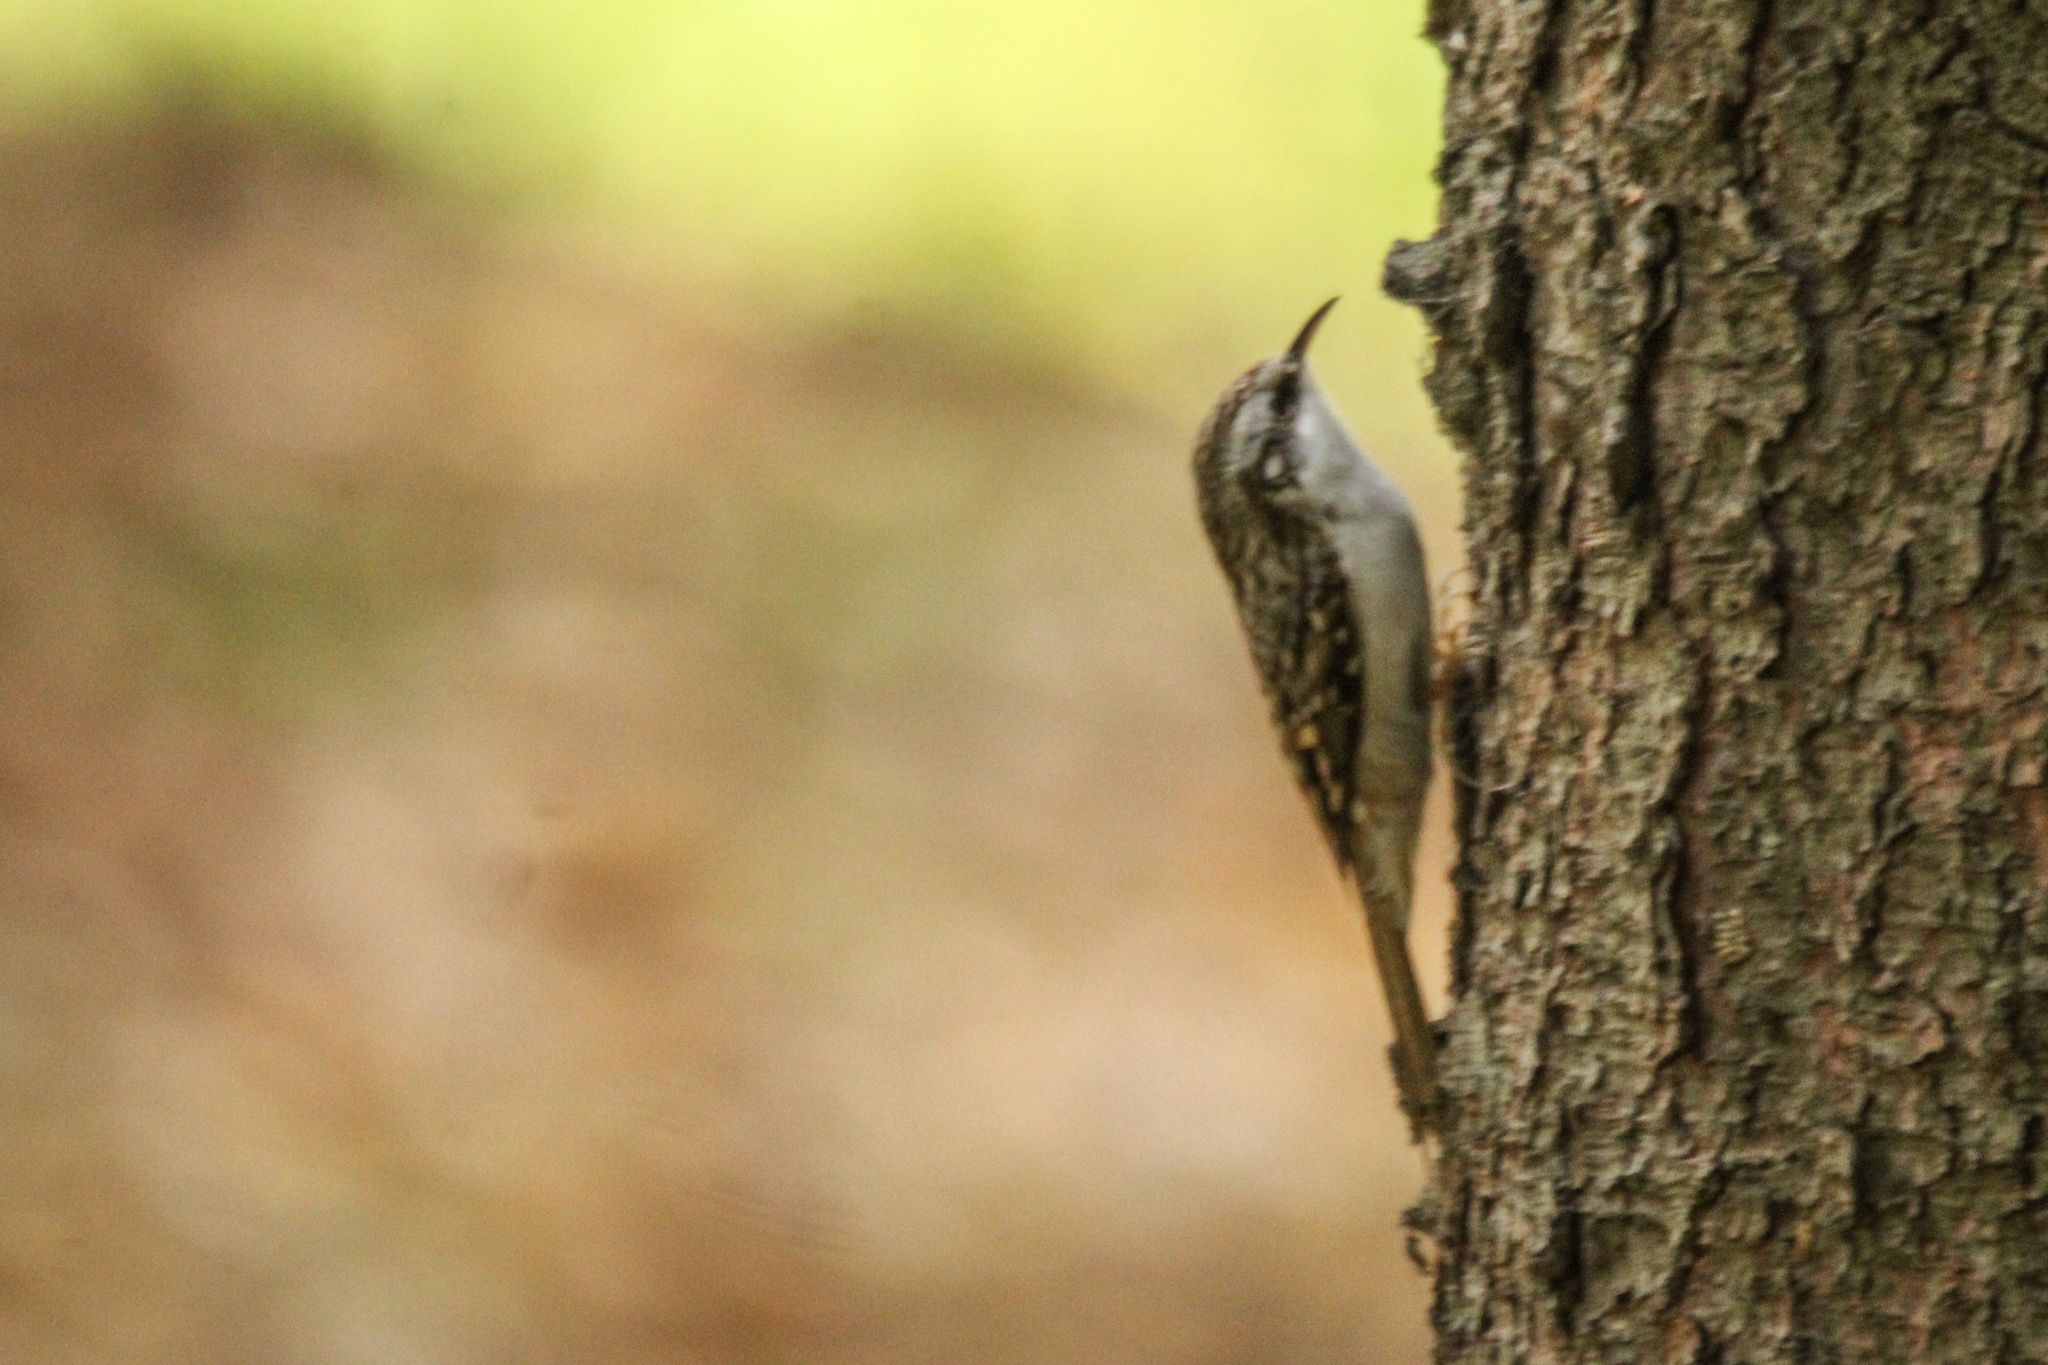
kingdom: Animalia
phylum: Chordata
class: Aves
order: Passeriformes
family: Certhiidae
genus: Certhia
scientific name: Certhia familiaris
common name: Eurasian treecreeper
